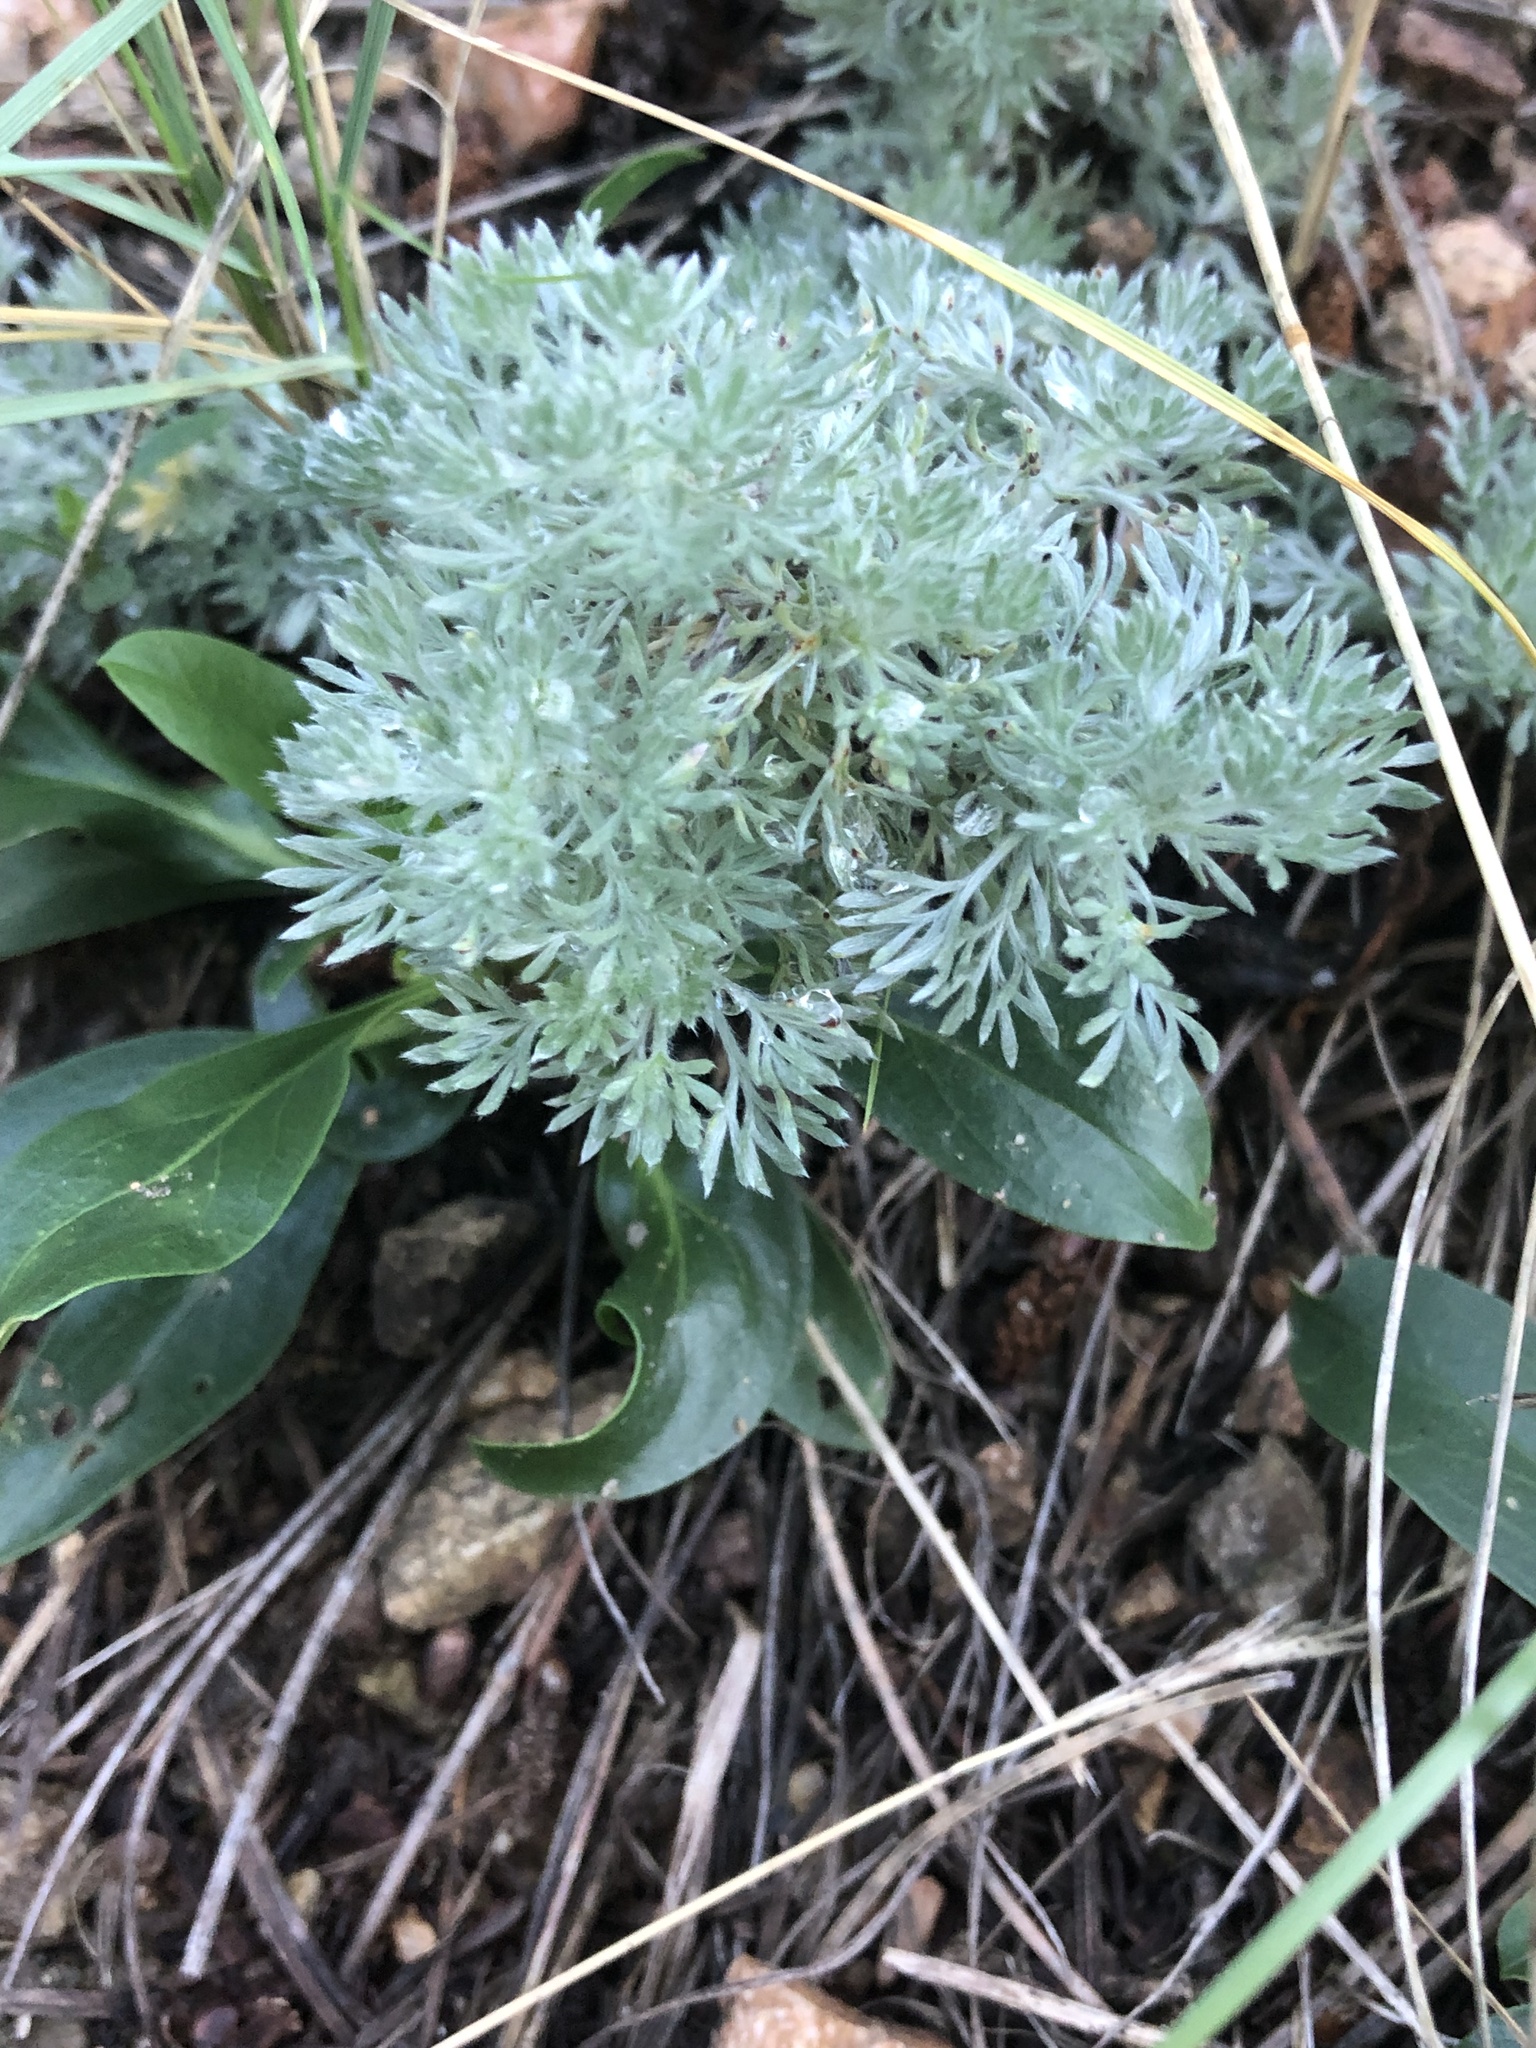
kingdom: Plantae
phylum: Tracheophyta
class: Magnoliopsida
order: Asterales
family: Asteraceae
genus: Artemisia
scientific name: Artemisia frigida
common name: Prairie sagewort
